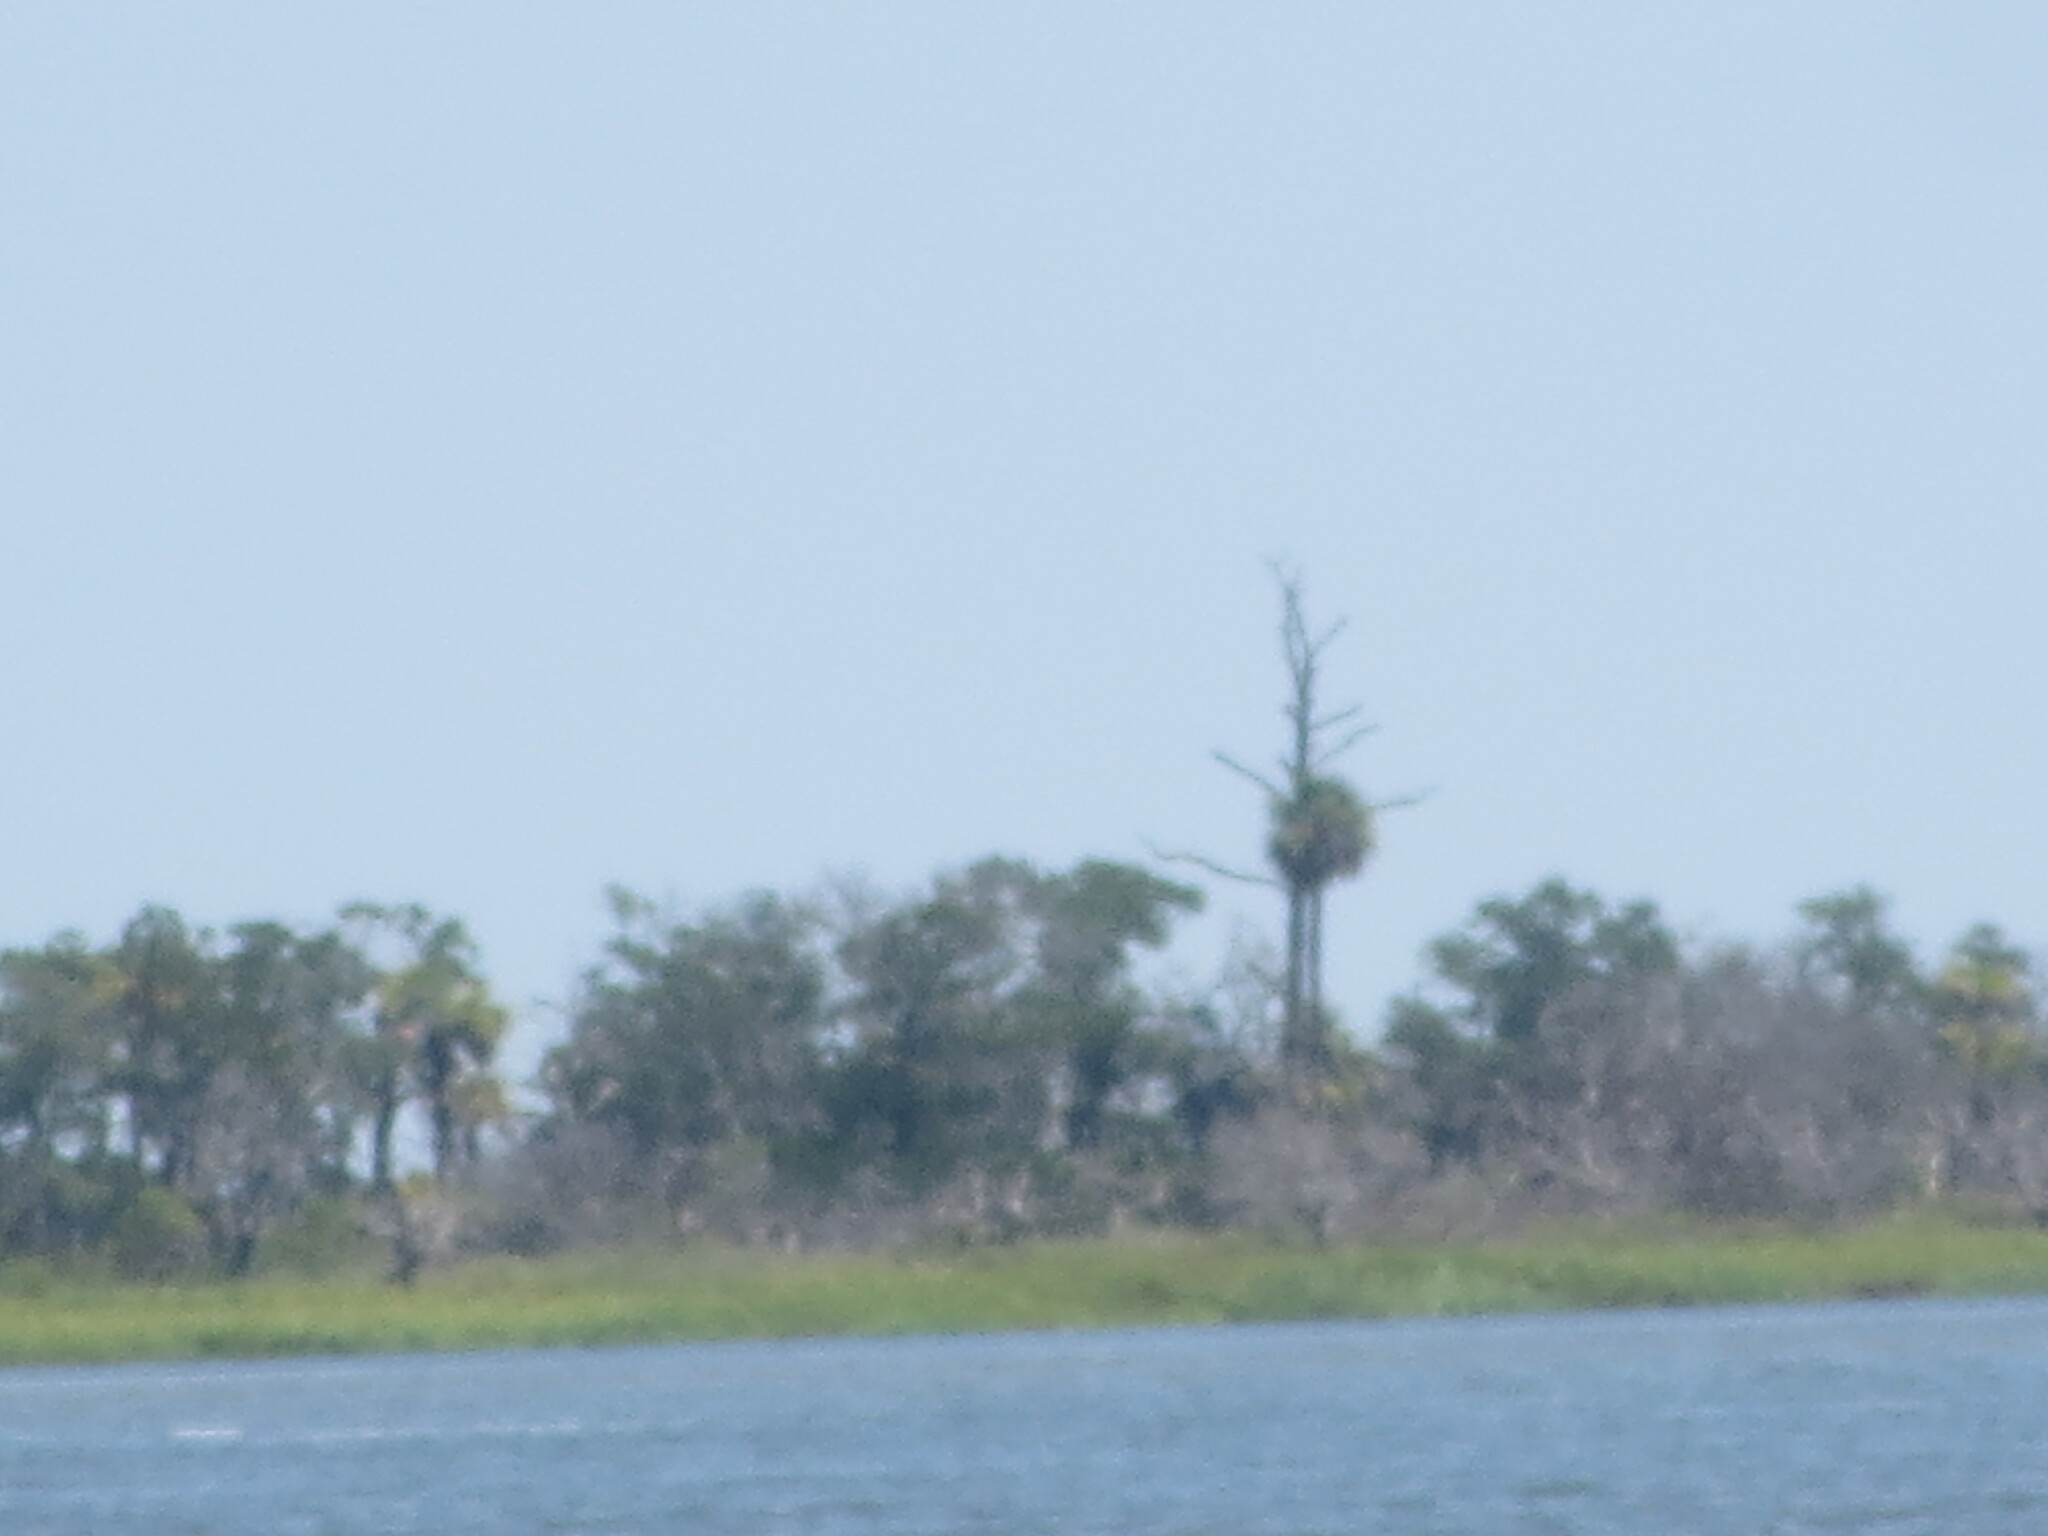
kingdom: Plantae
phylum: Tracheophyta
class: Liliopsida
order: Arecales
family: Arecaceae
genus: Sabal
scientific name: Sabal palmetto
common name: Blue palmetto
